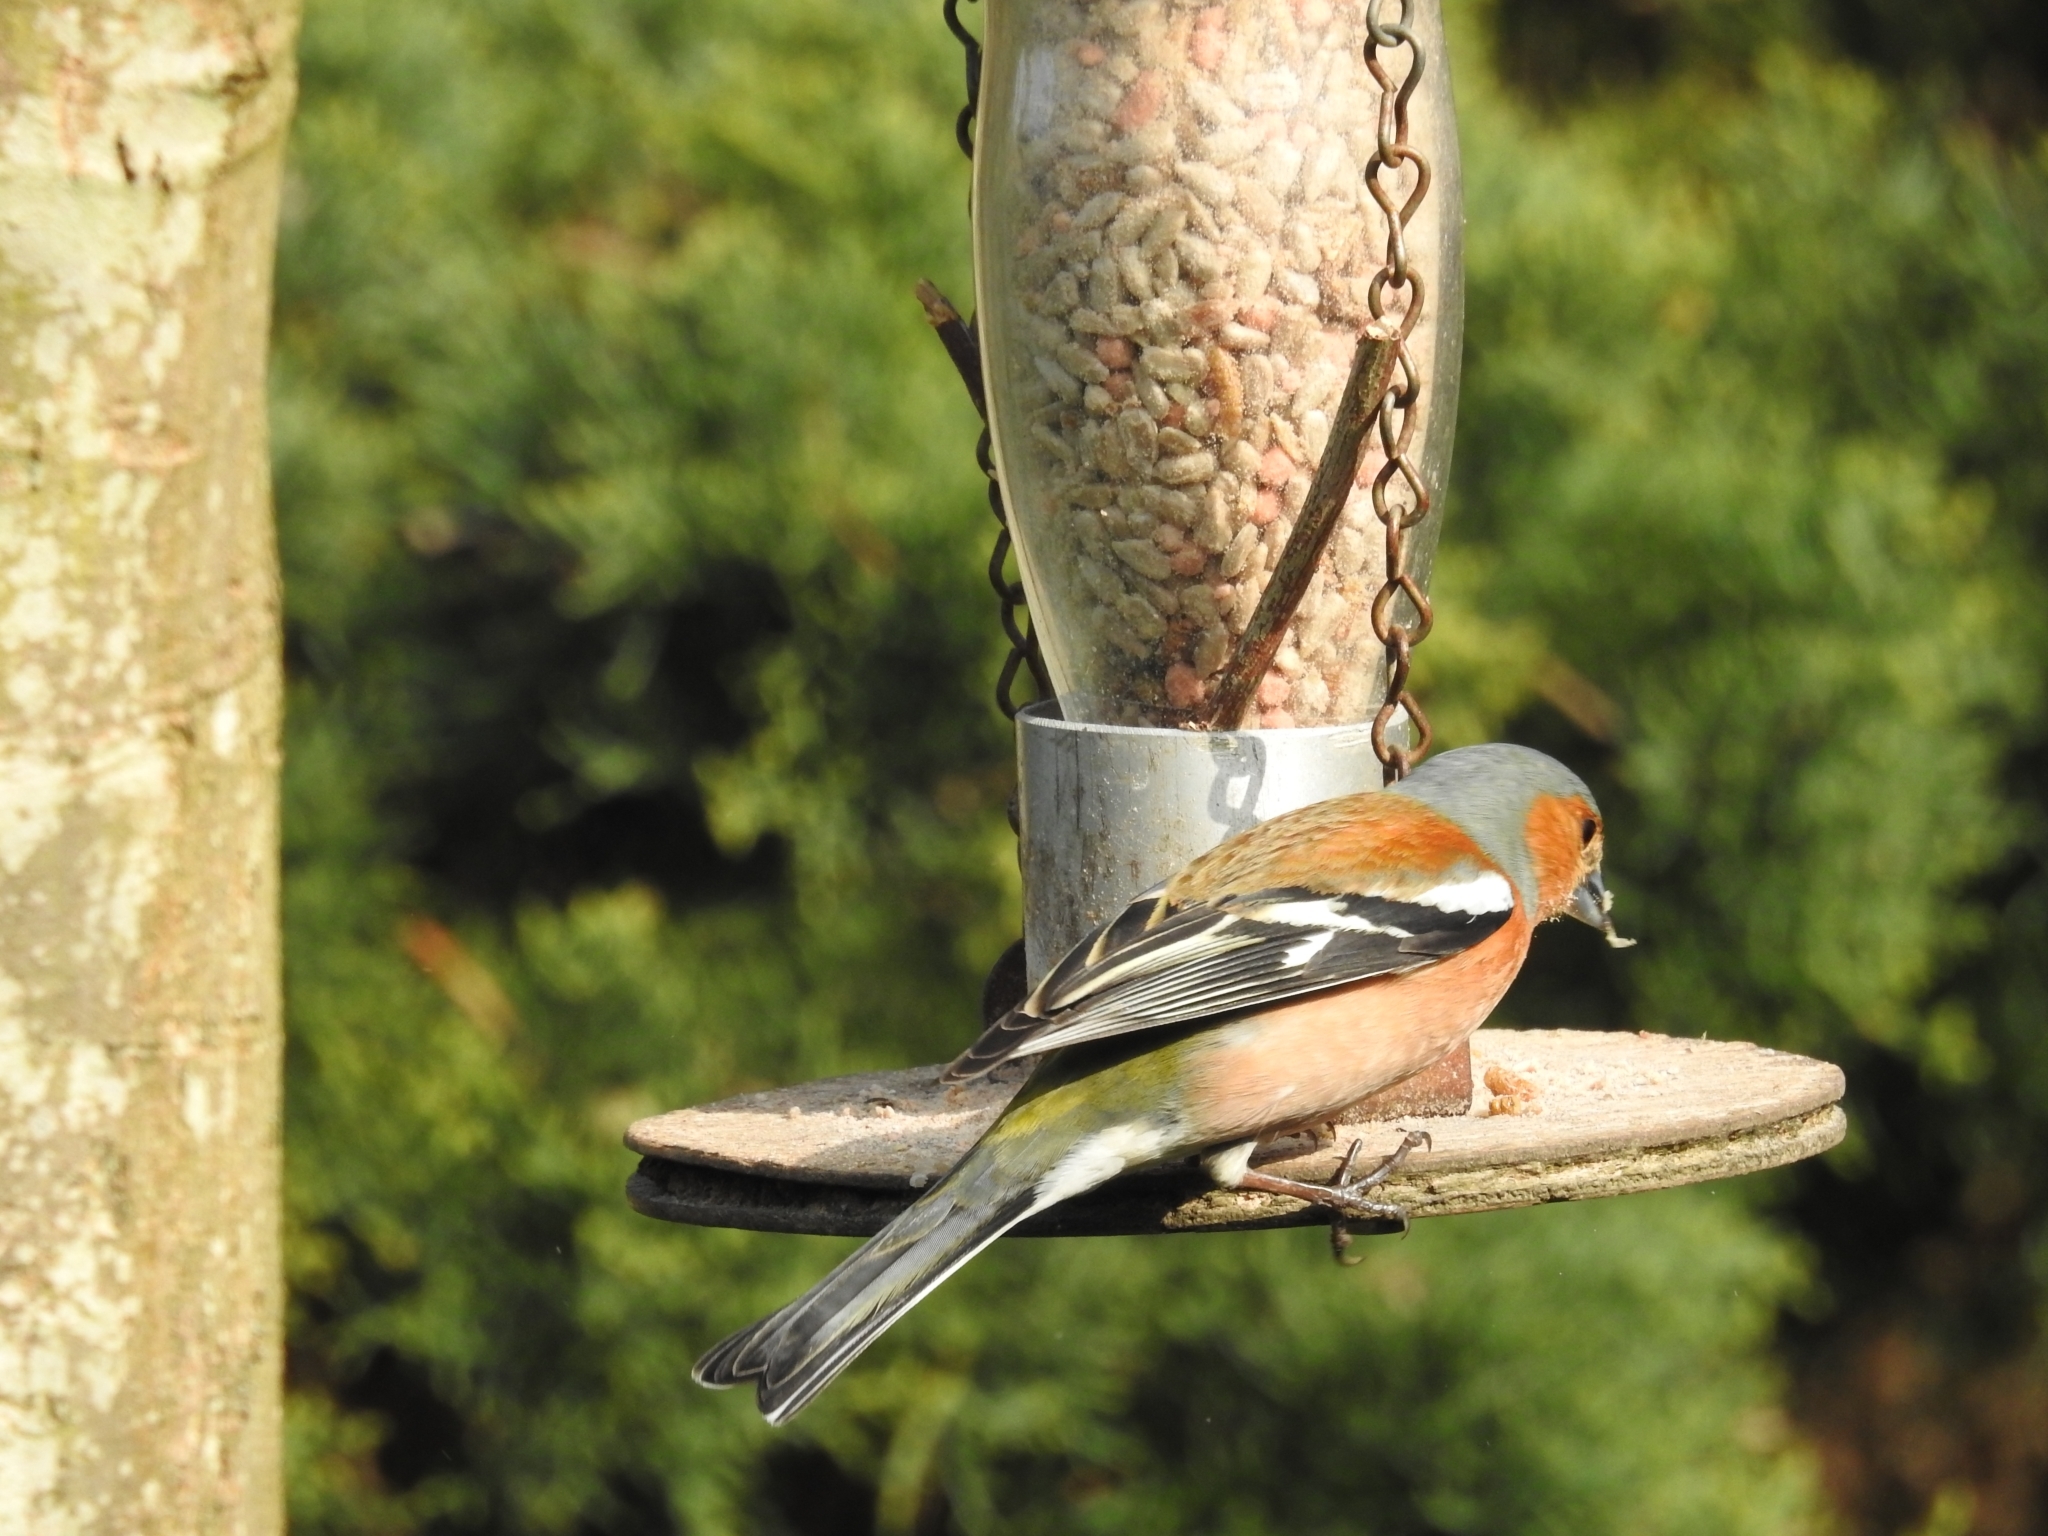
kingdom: Animalia
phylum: Chordata
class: Aves
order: Passeriformes
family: Fringillidae
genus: Fringilla
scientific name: Fringilla coelebs
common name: Common chaffinch
